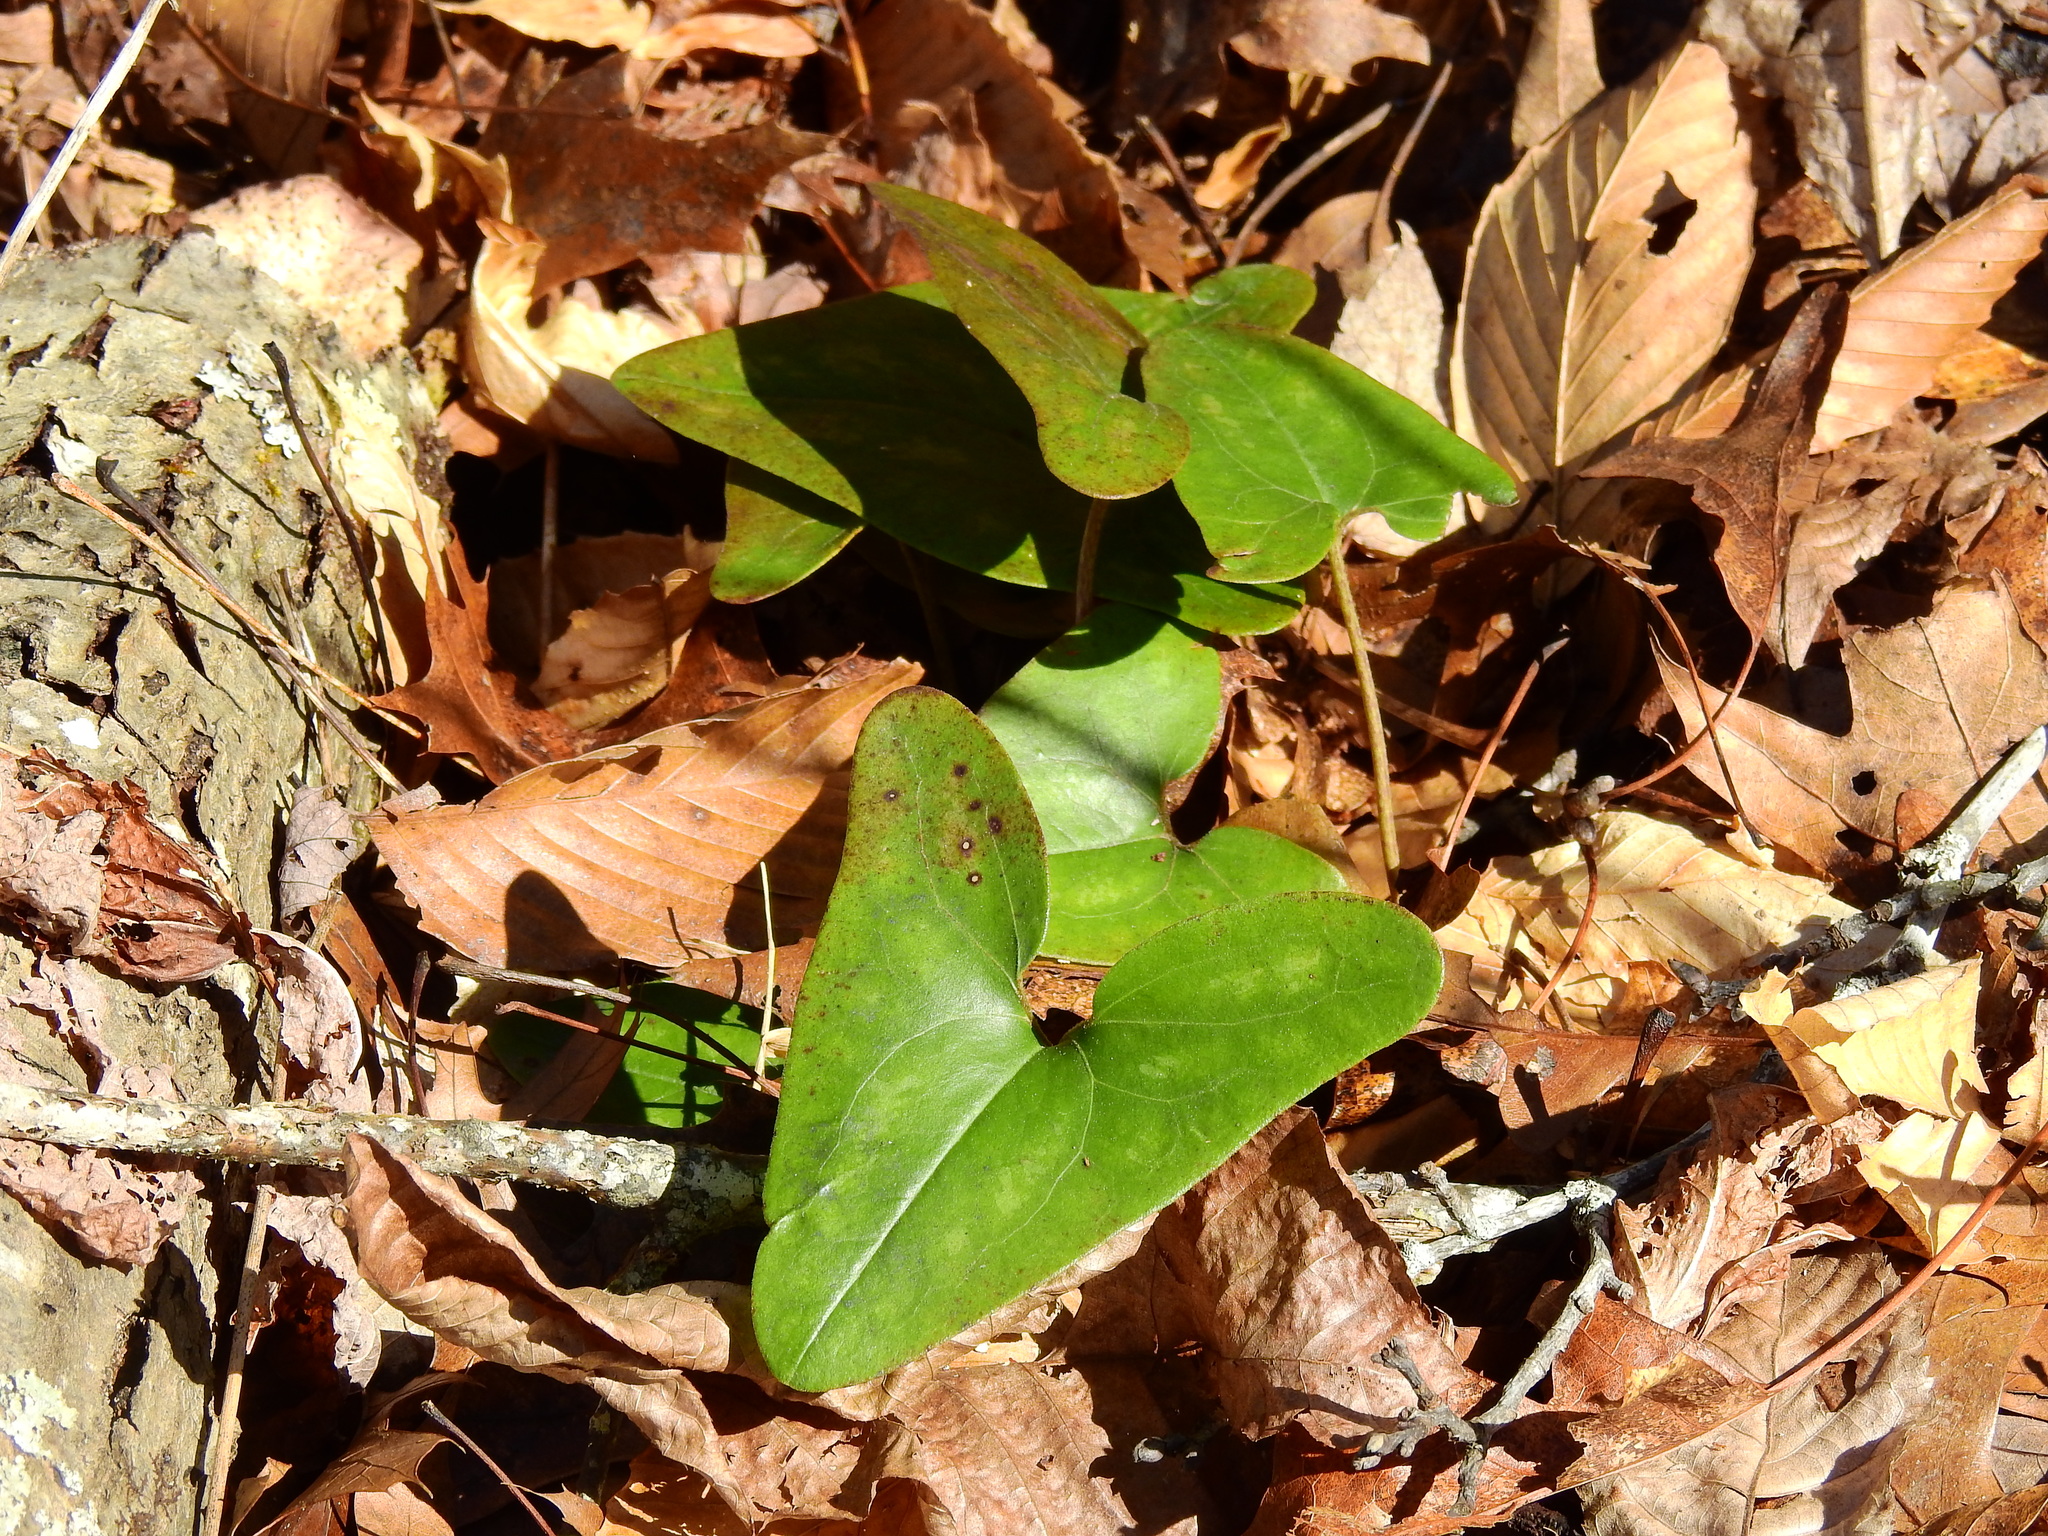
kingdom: Plantae
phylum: Tracheophyta
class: Magnoliopsida
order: Piperales
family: Aristolochiaceae
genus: Hexastylis
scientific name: Hexastylis arifolia
